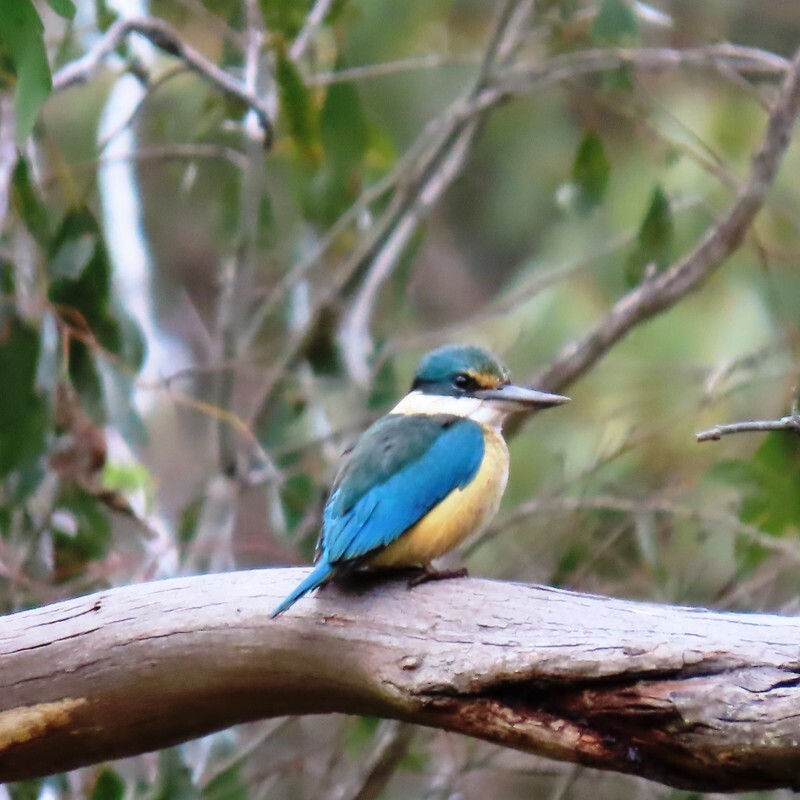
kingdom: Animalia
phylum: Chordata
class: Aves
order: Coraciiformes
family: Alcedinidae
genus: Todiramphus
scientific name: Todiramphus sanctus
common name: Sacred kingfisher
